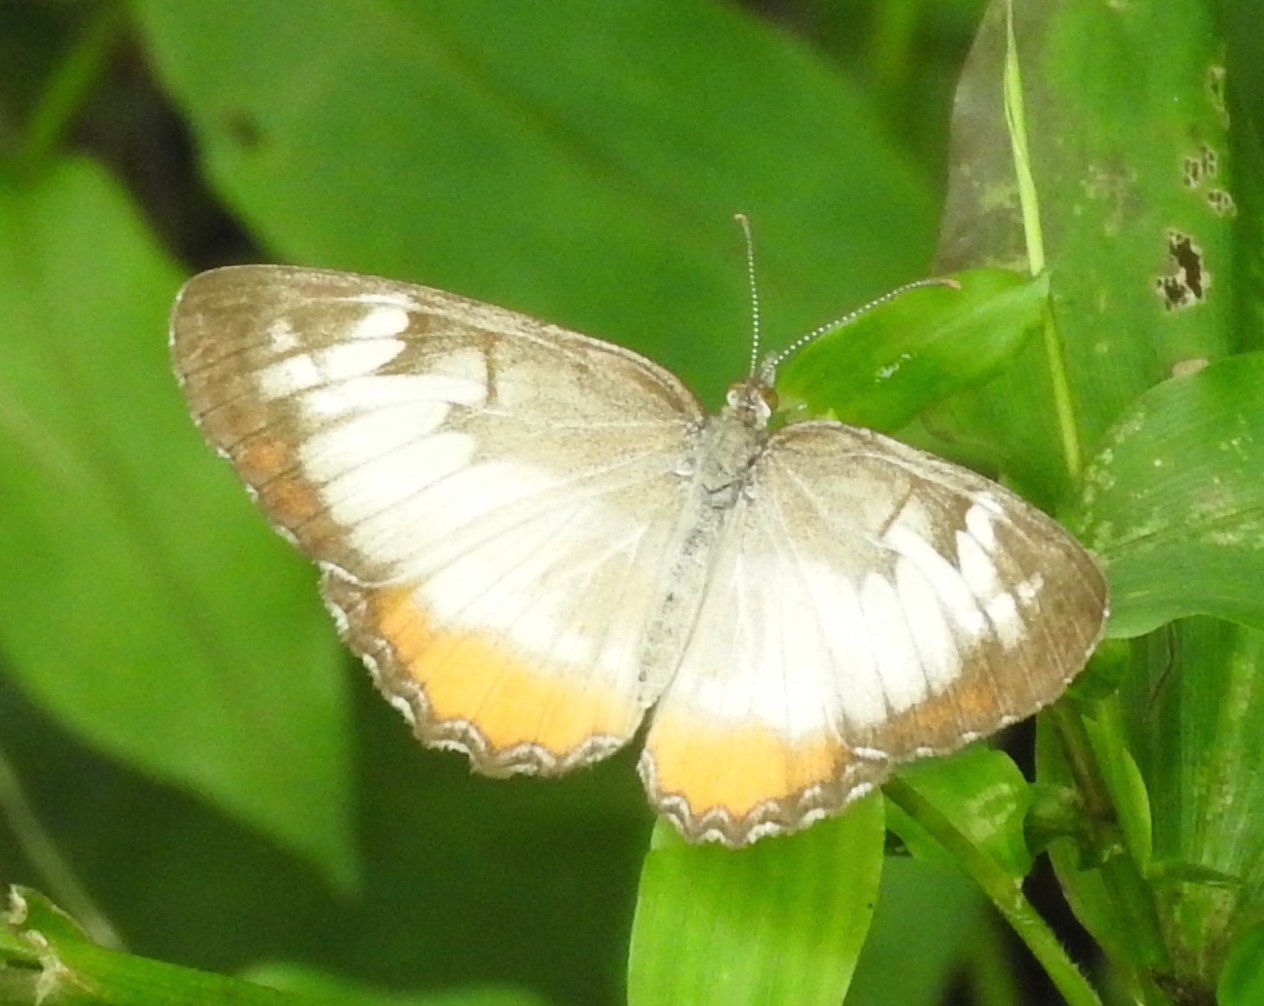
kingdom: Animalia
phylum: Arthropoda
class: Insecta
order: Lepidoptera
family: Nymphalidae
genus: Mestra
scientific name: Mestra amymone
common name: Common mestra
